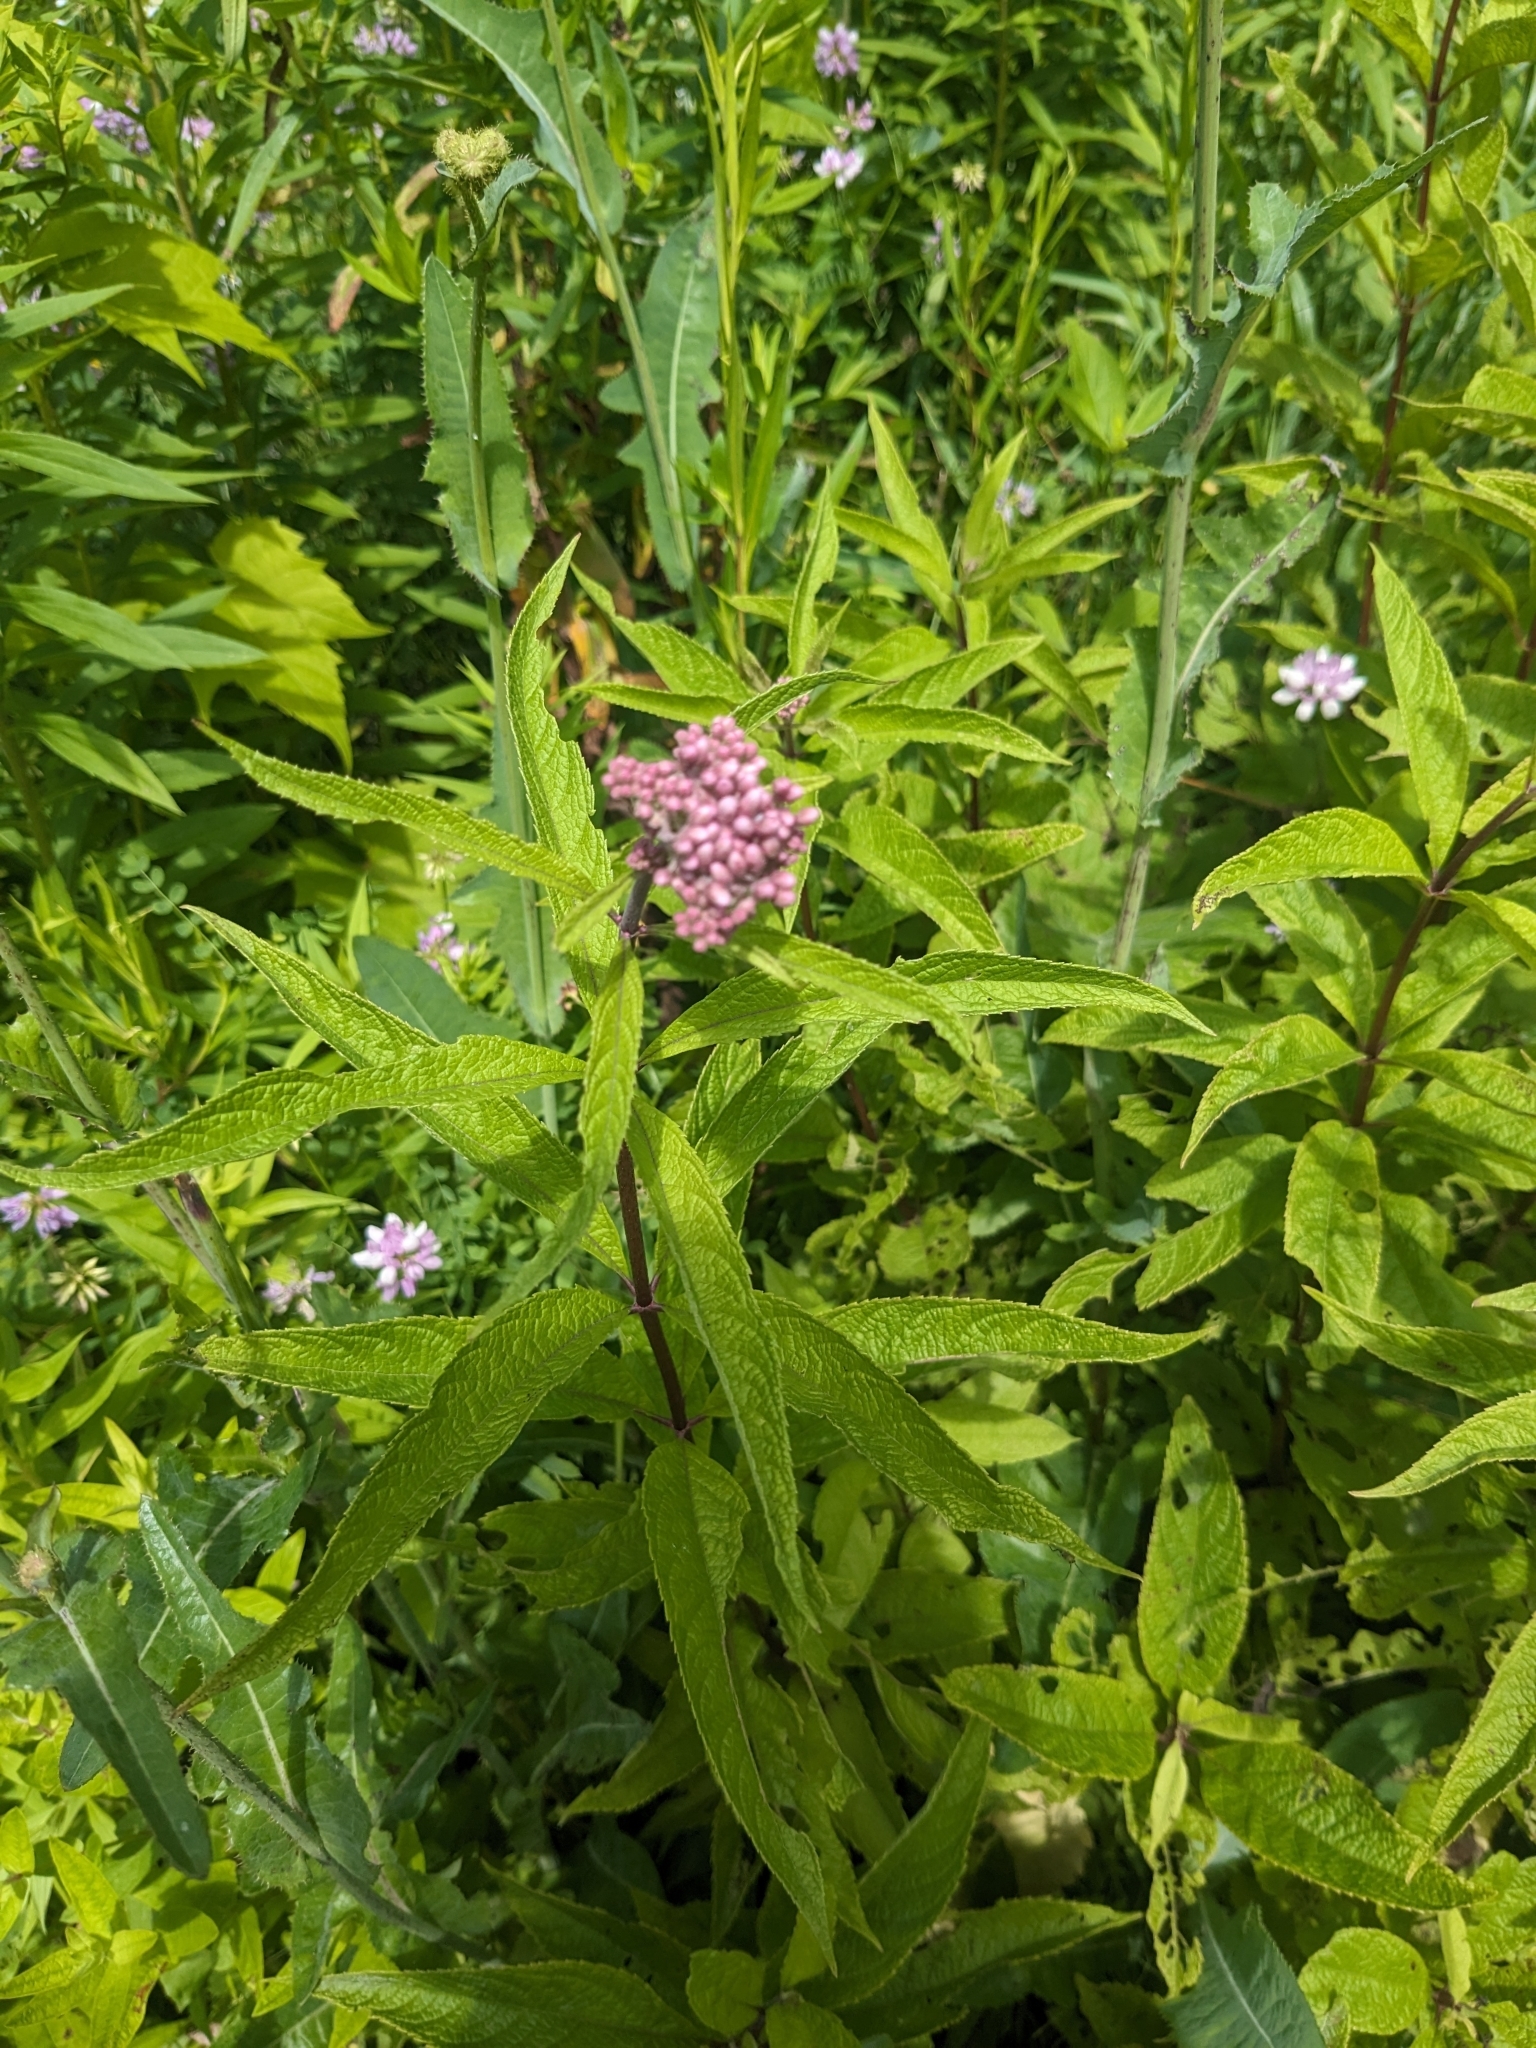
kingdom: Plantae
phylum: Tracheophyta
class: Magnoliopsida
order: Asterales
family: Asteraceae
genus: Eutrochium
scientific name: Eutrochium maculatum
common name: Spotted joe pye weed
